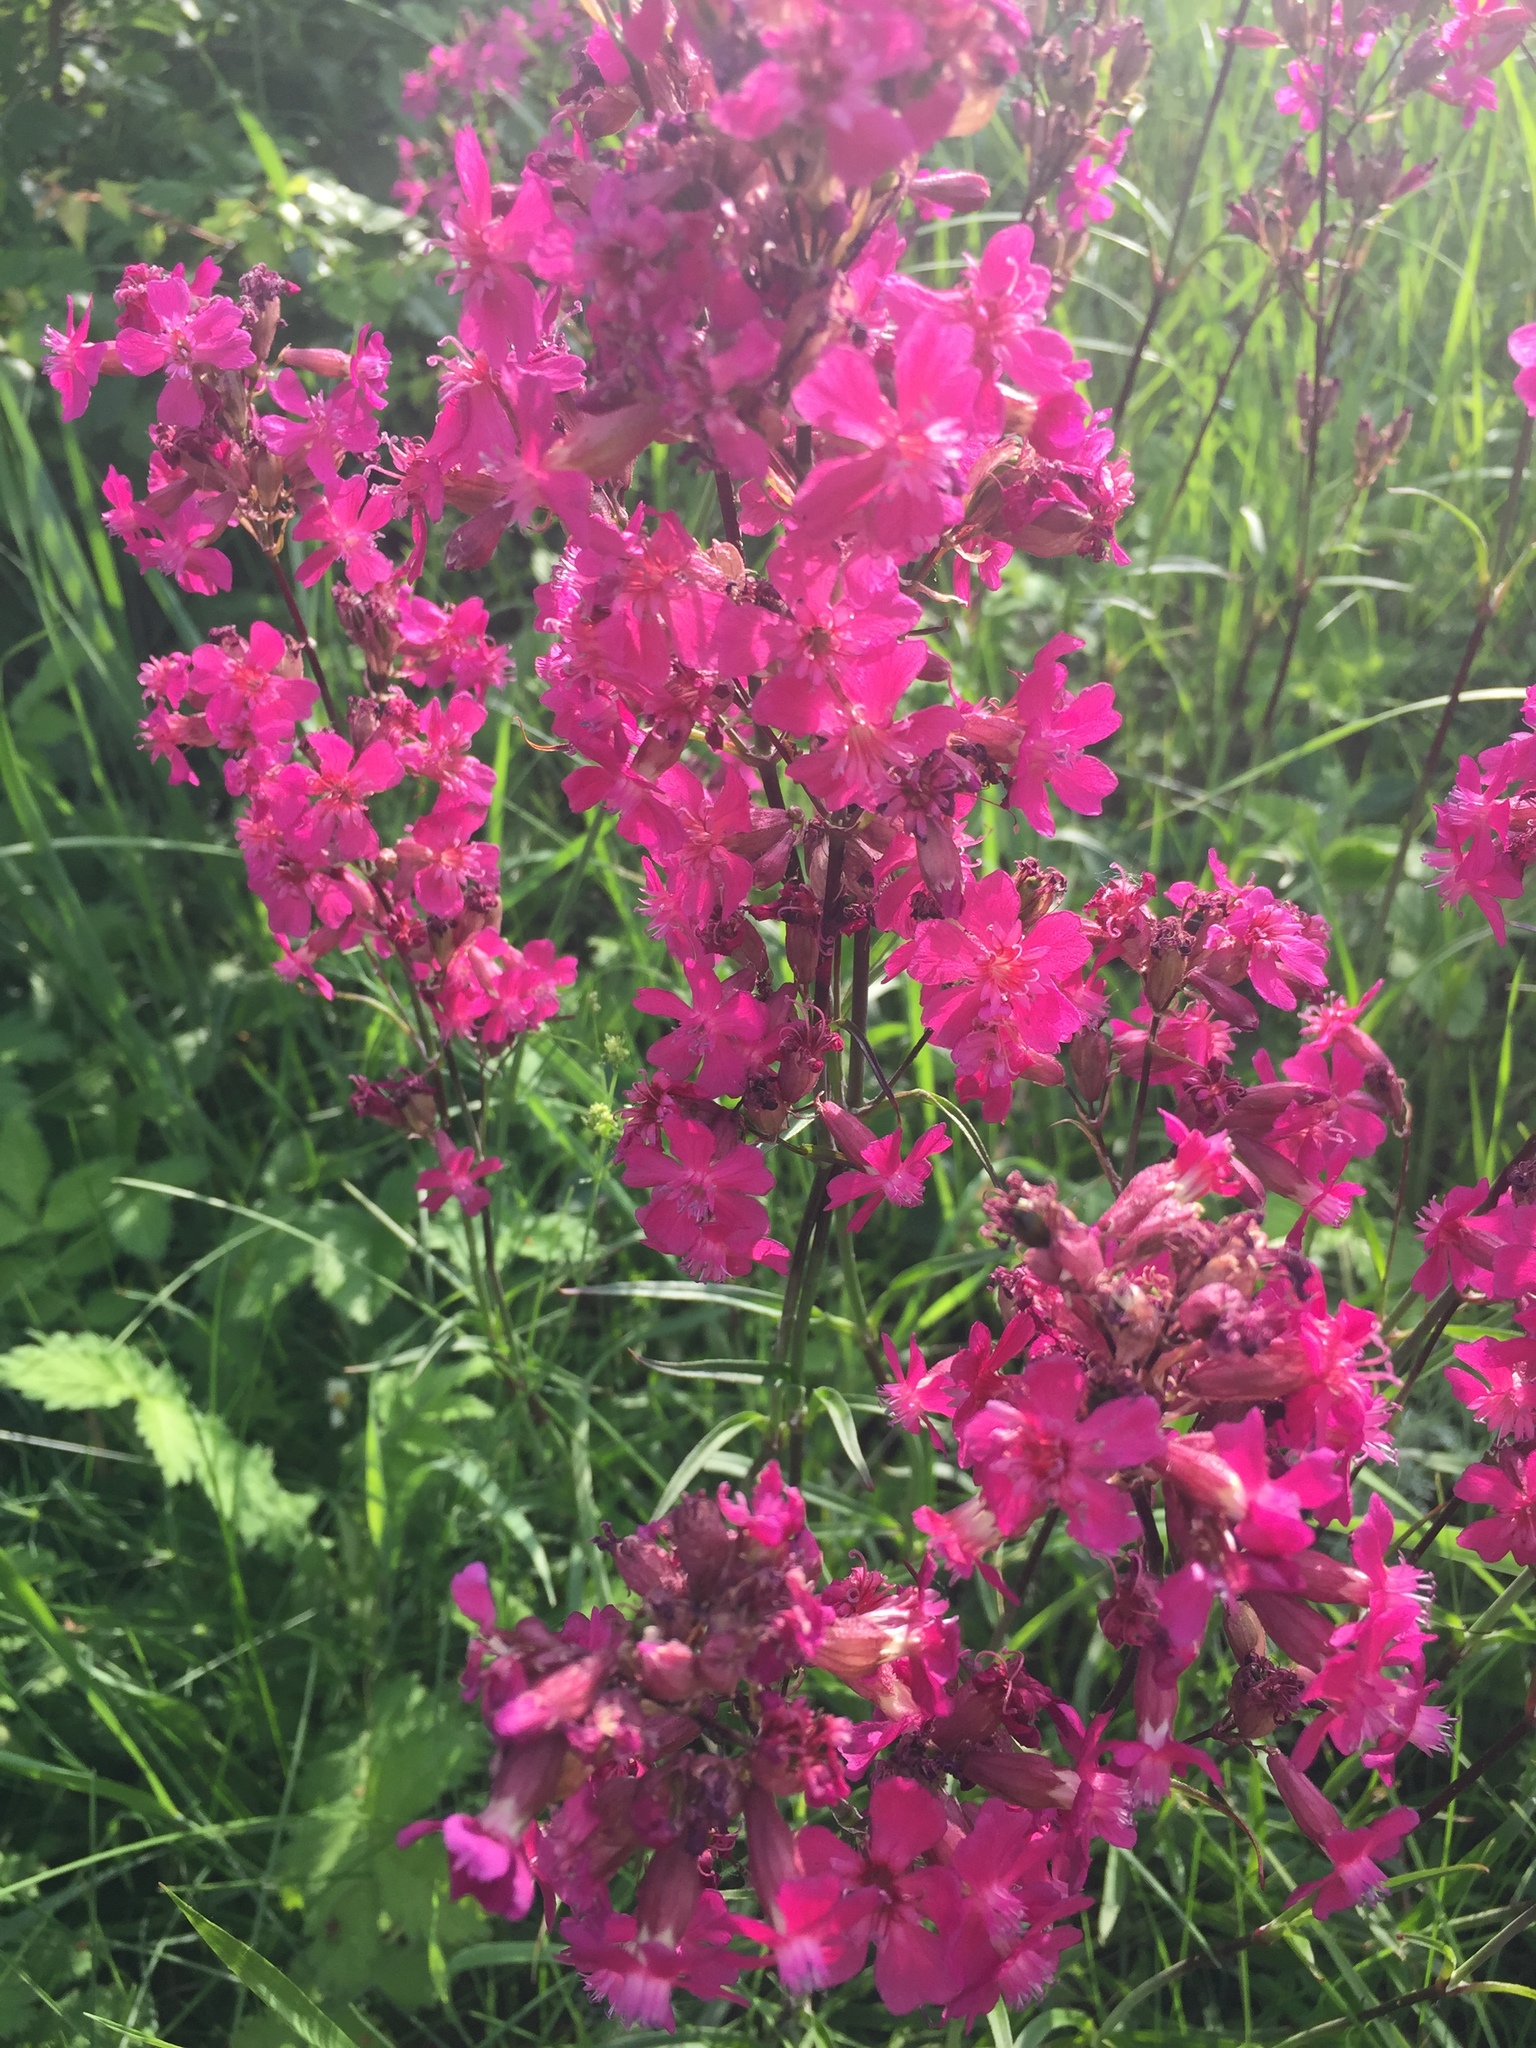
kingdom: Plantae
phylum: Tracheophyta
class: Magnoliopsida
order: Caryophyllales
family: Caryophyllaceae
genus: Viscaria
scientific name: Viscaria vulgaris
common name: Clammy campion
